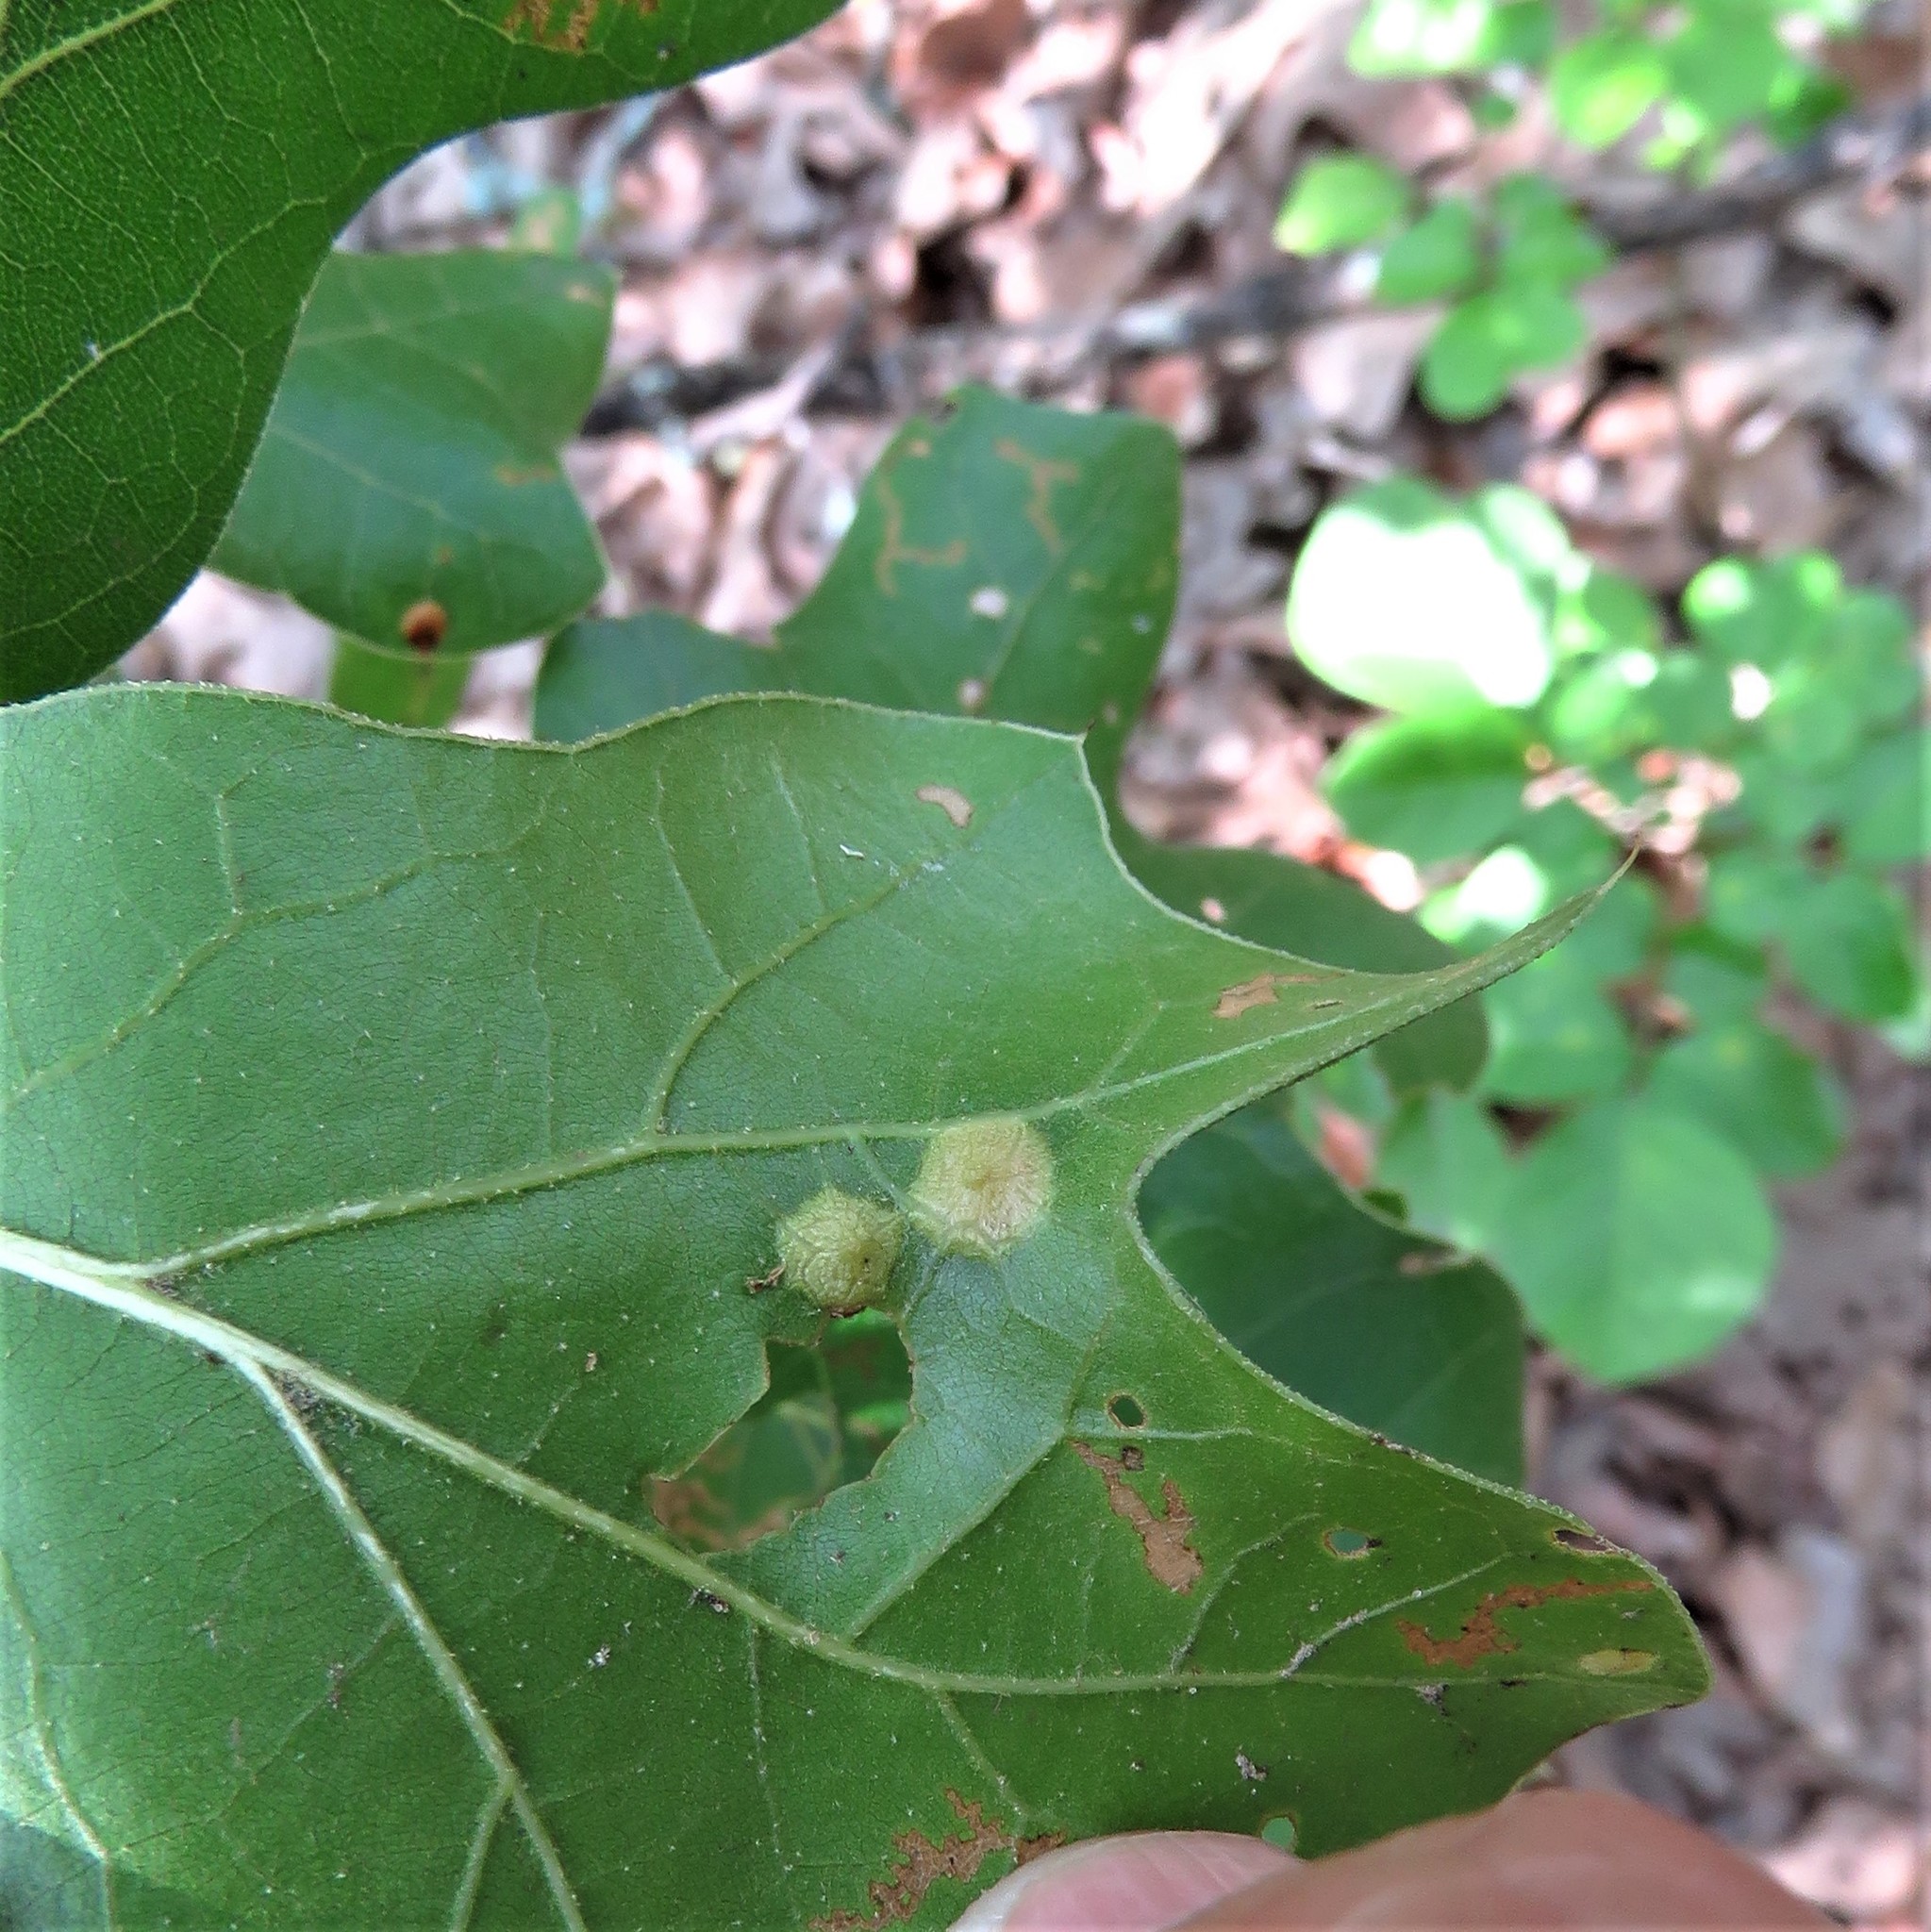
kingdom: Animalia
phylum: Arthropoda
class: Insecta
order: Diptera
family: Cecidomyiidae
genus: Polystepha
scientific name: Polystepha pilulae
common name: Oak leaf gall midge
